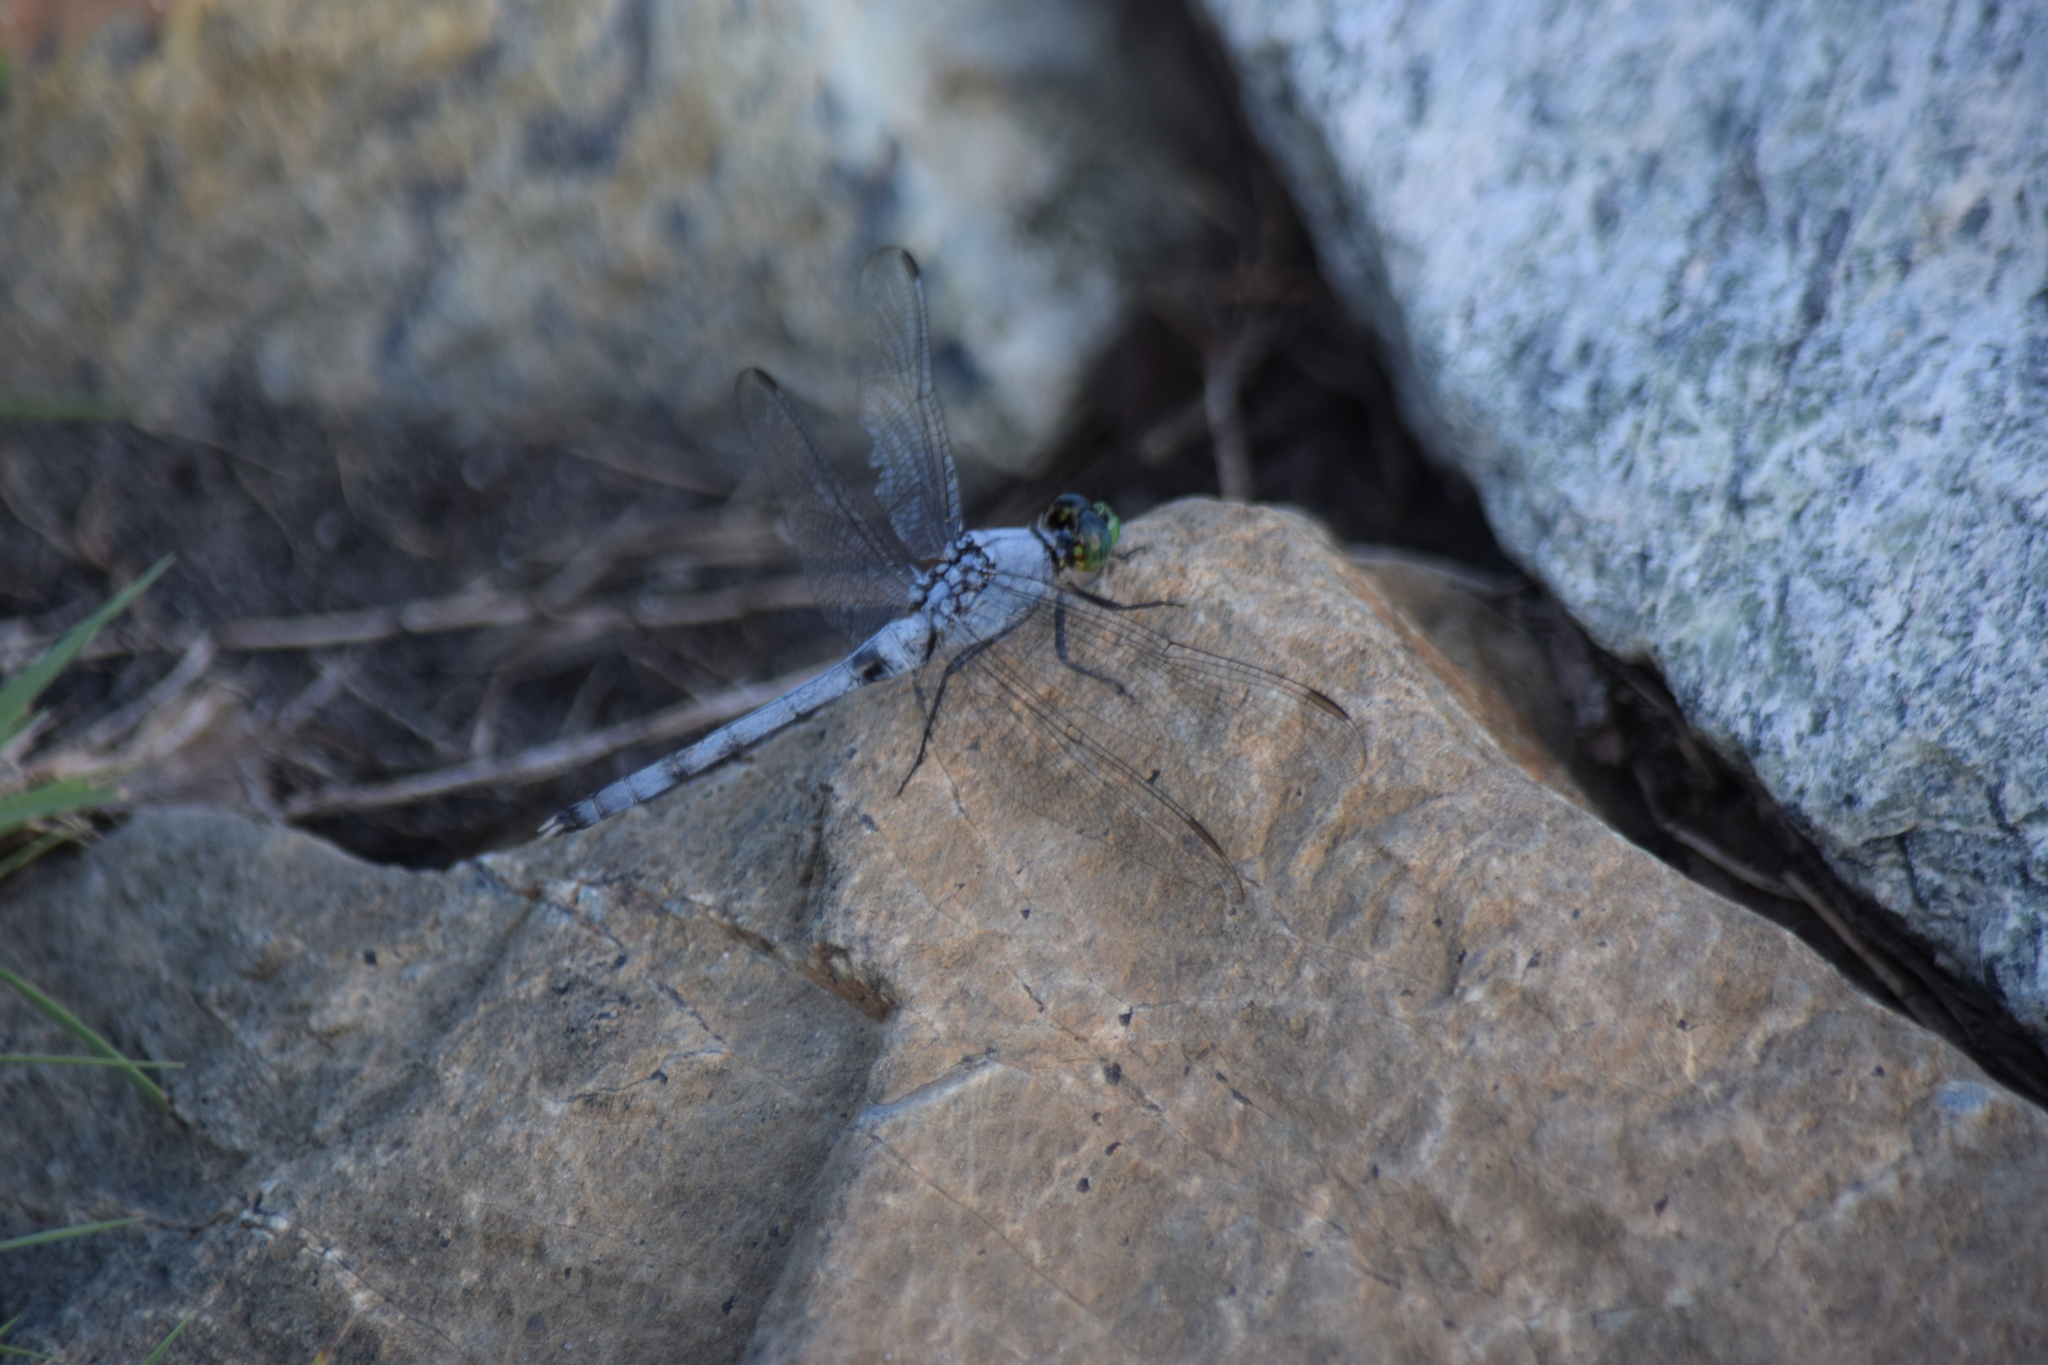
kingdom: Animalia
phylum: Arthropoda
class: Insecta
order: Odonata
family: Libellulidae
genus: Erythemis
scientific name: Erythemis simplicicollis
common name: Eastern pondhawk
